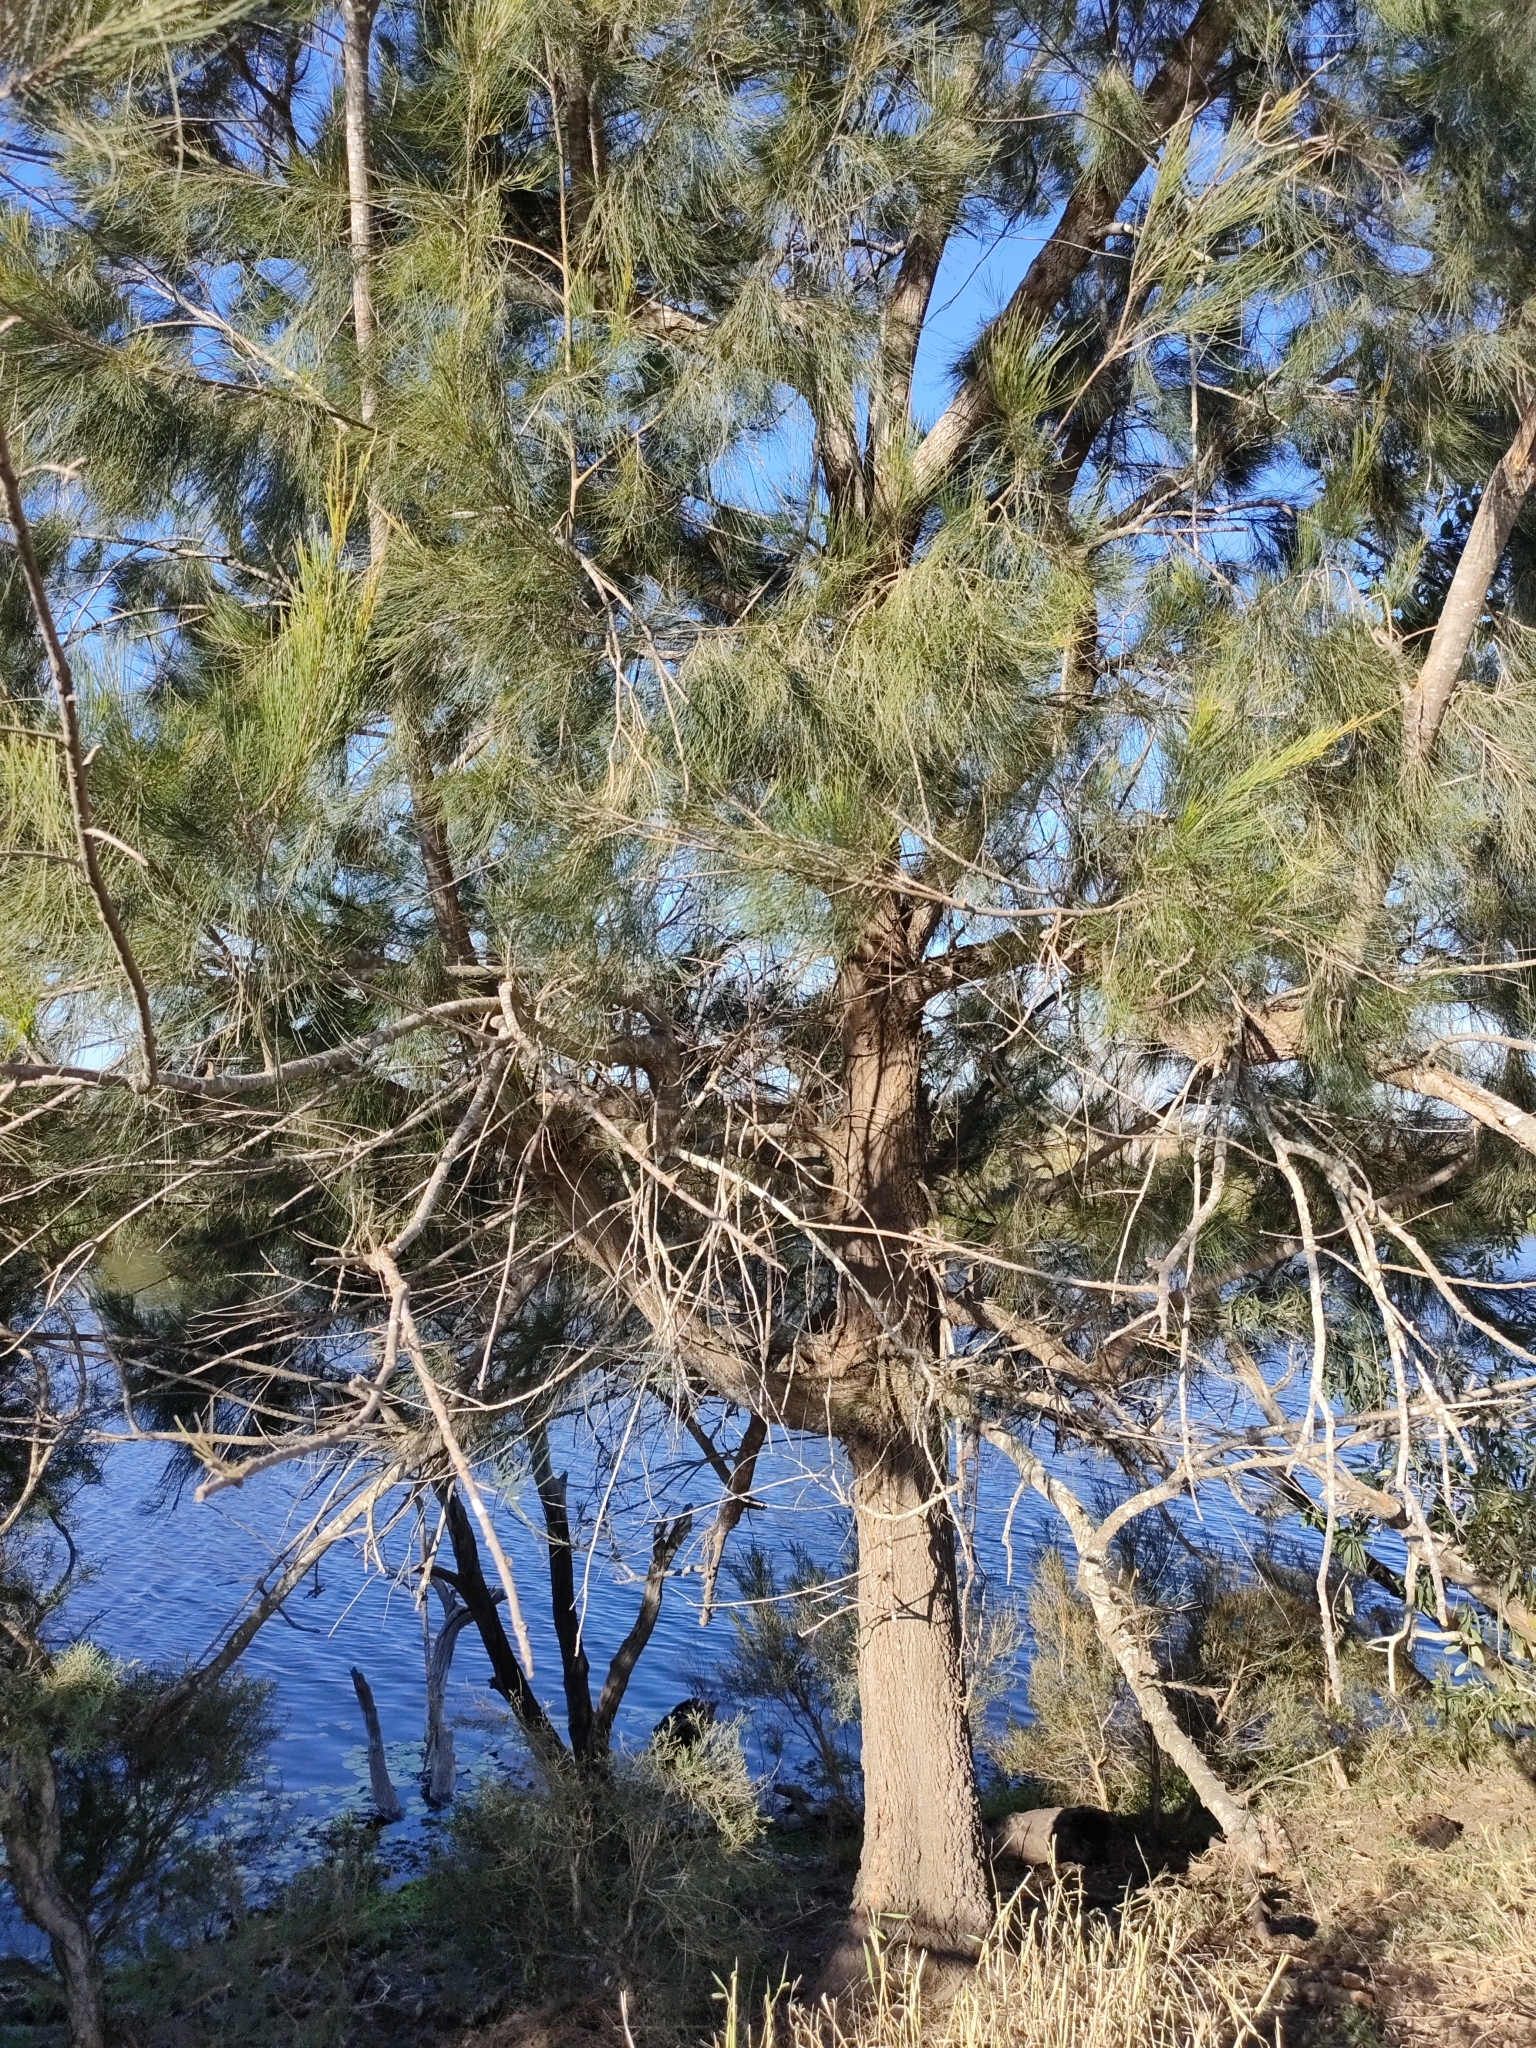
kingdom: Plantae
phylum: Tracheophyta
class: Magnoliopsida
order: Fagales
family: Casuarinaceae
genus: Casuarina
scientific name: Casuarina cunninghamiana
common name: River sheoak
